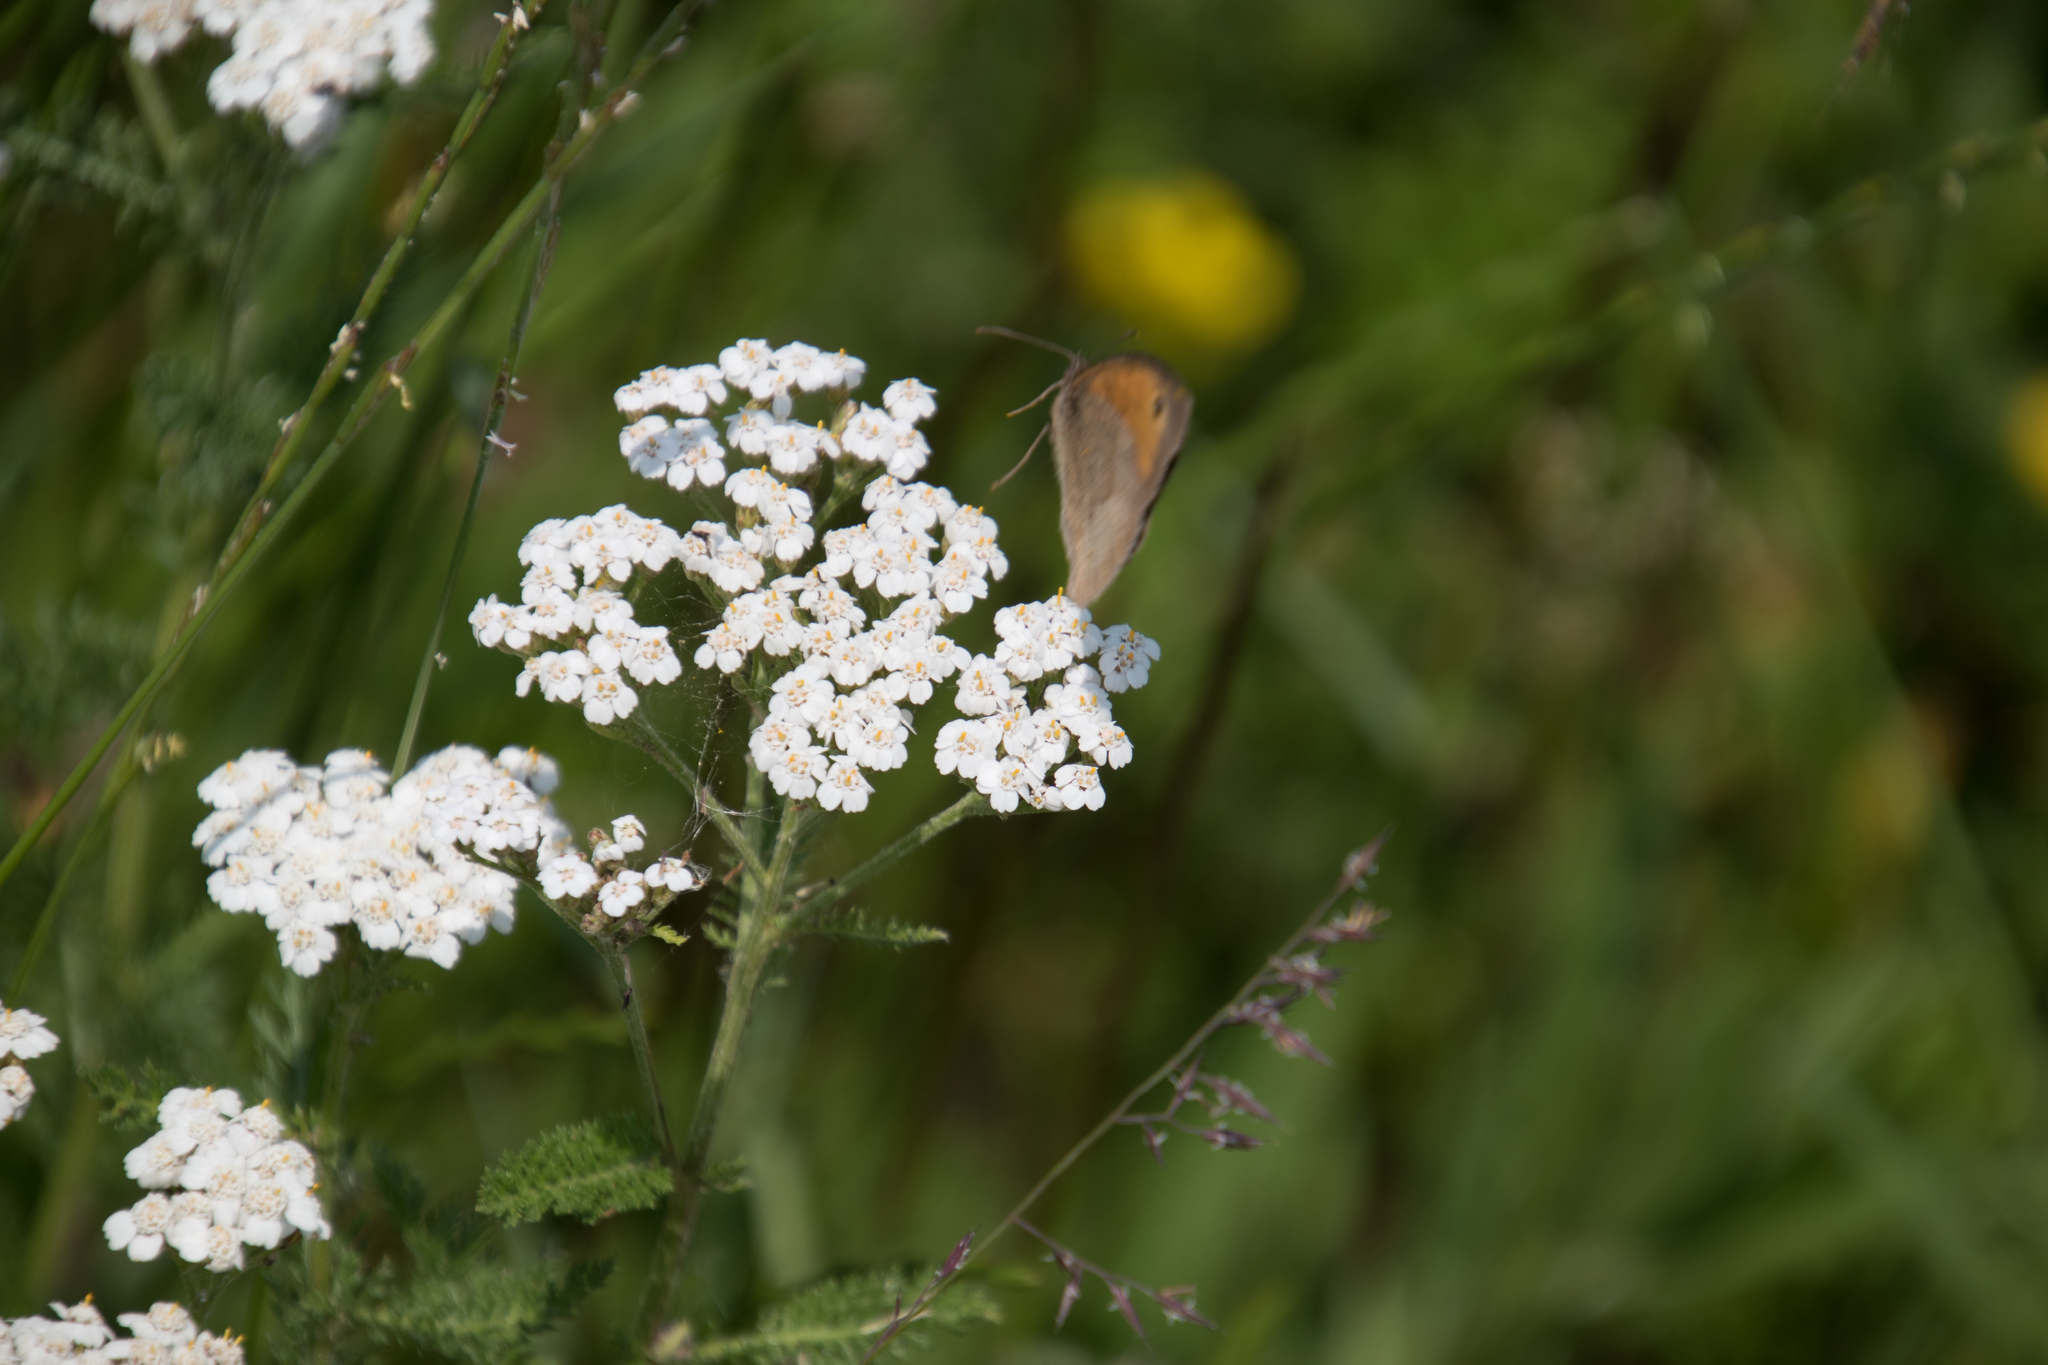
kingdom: Animalia
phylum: Arthropoda
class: Insecta
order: Lepidoptera
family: Nymphalidae
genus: Maniola
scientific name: Maniola jurtina
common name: Meadow brown
